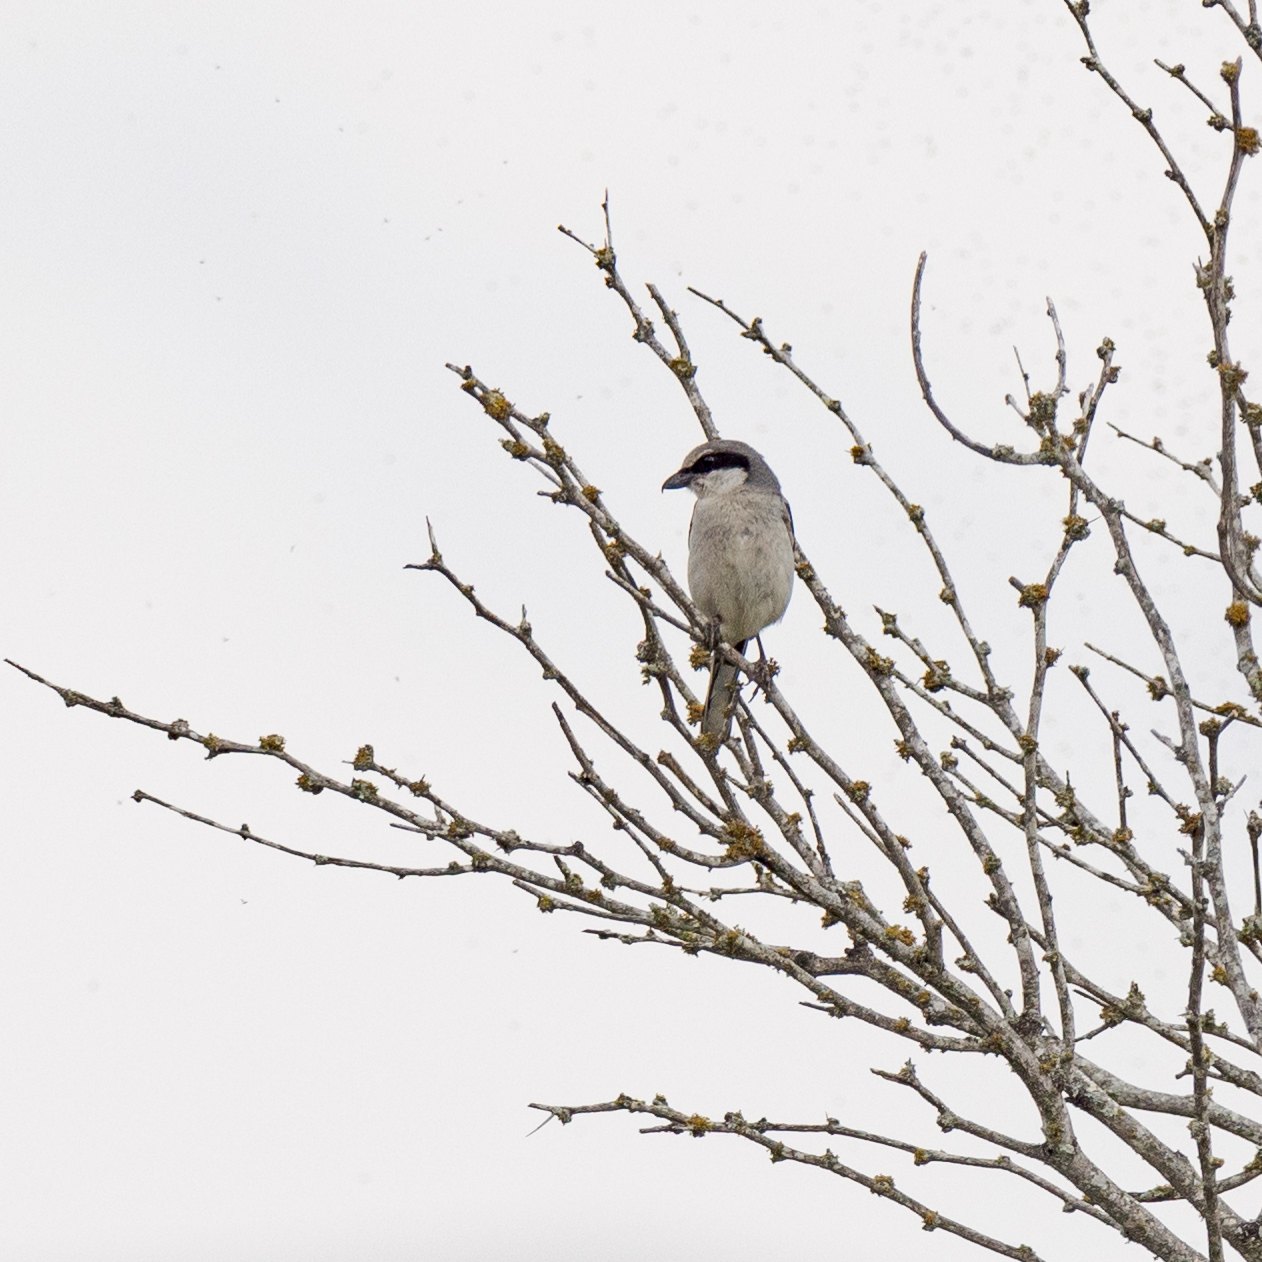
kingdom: Animalia
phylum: Chordata
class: Aves
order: Passeriformes
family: Laniidae
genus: Lanius
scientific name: Lanius ludovicianus
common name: Loggerhead shrike
